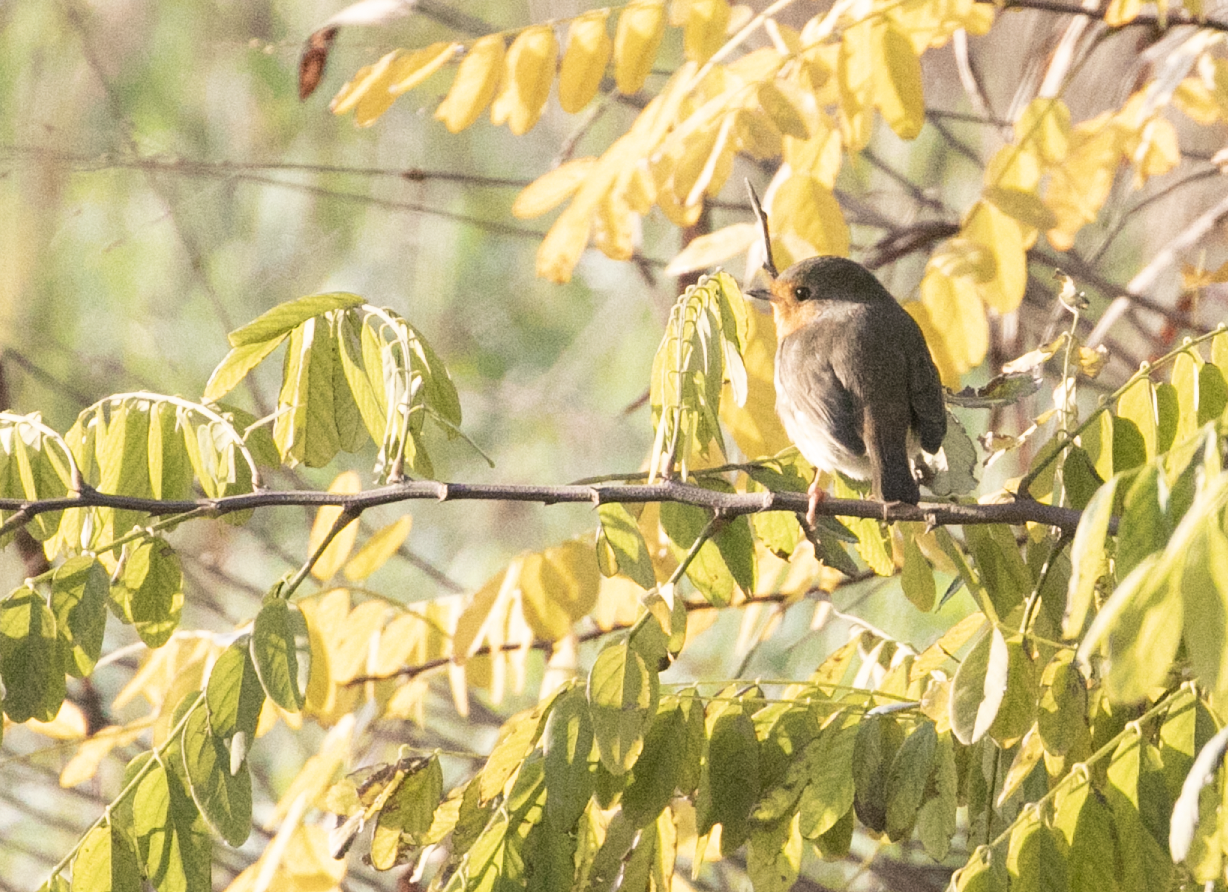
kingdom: Animalia
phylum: Chordata
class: Aves
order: Passeriformes
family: Muscicapidae
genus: Erithacus
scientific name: Erithacus rubecula
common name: European robin
